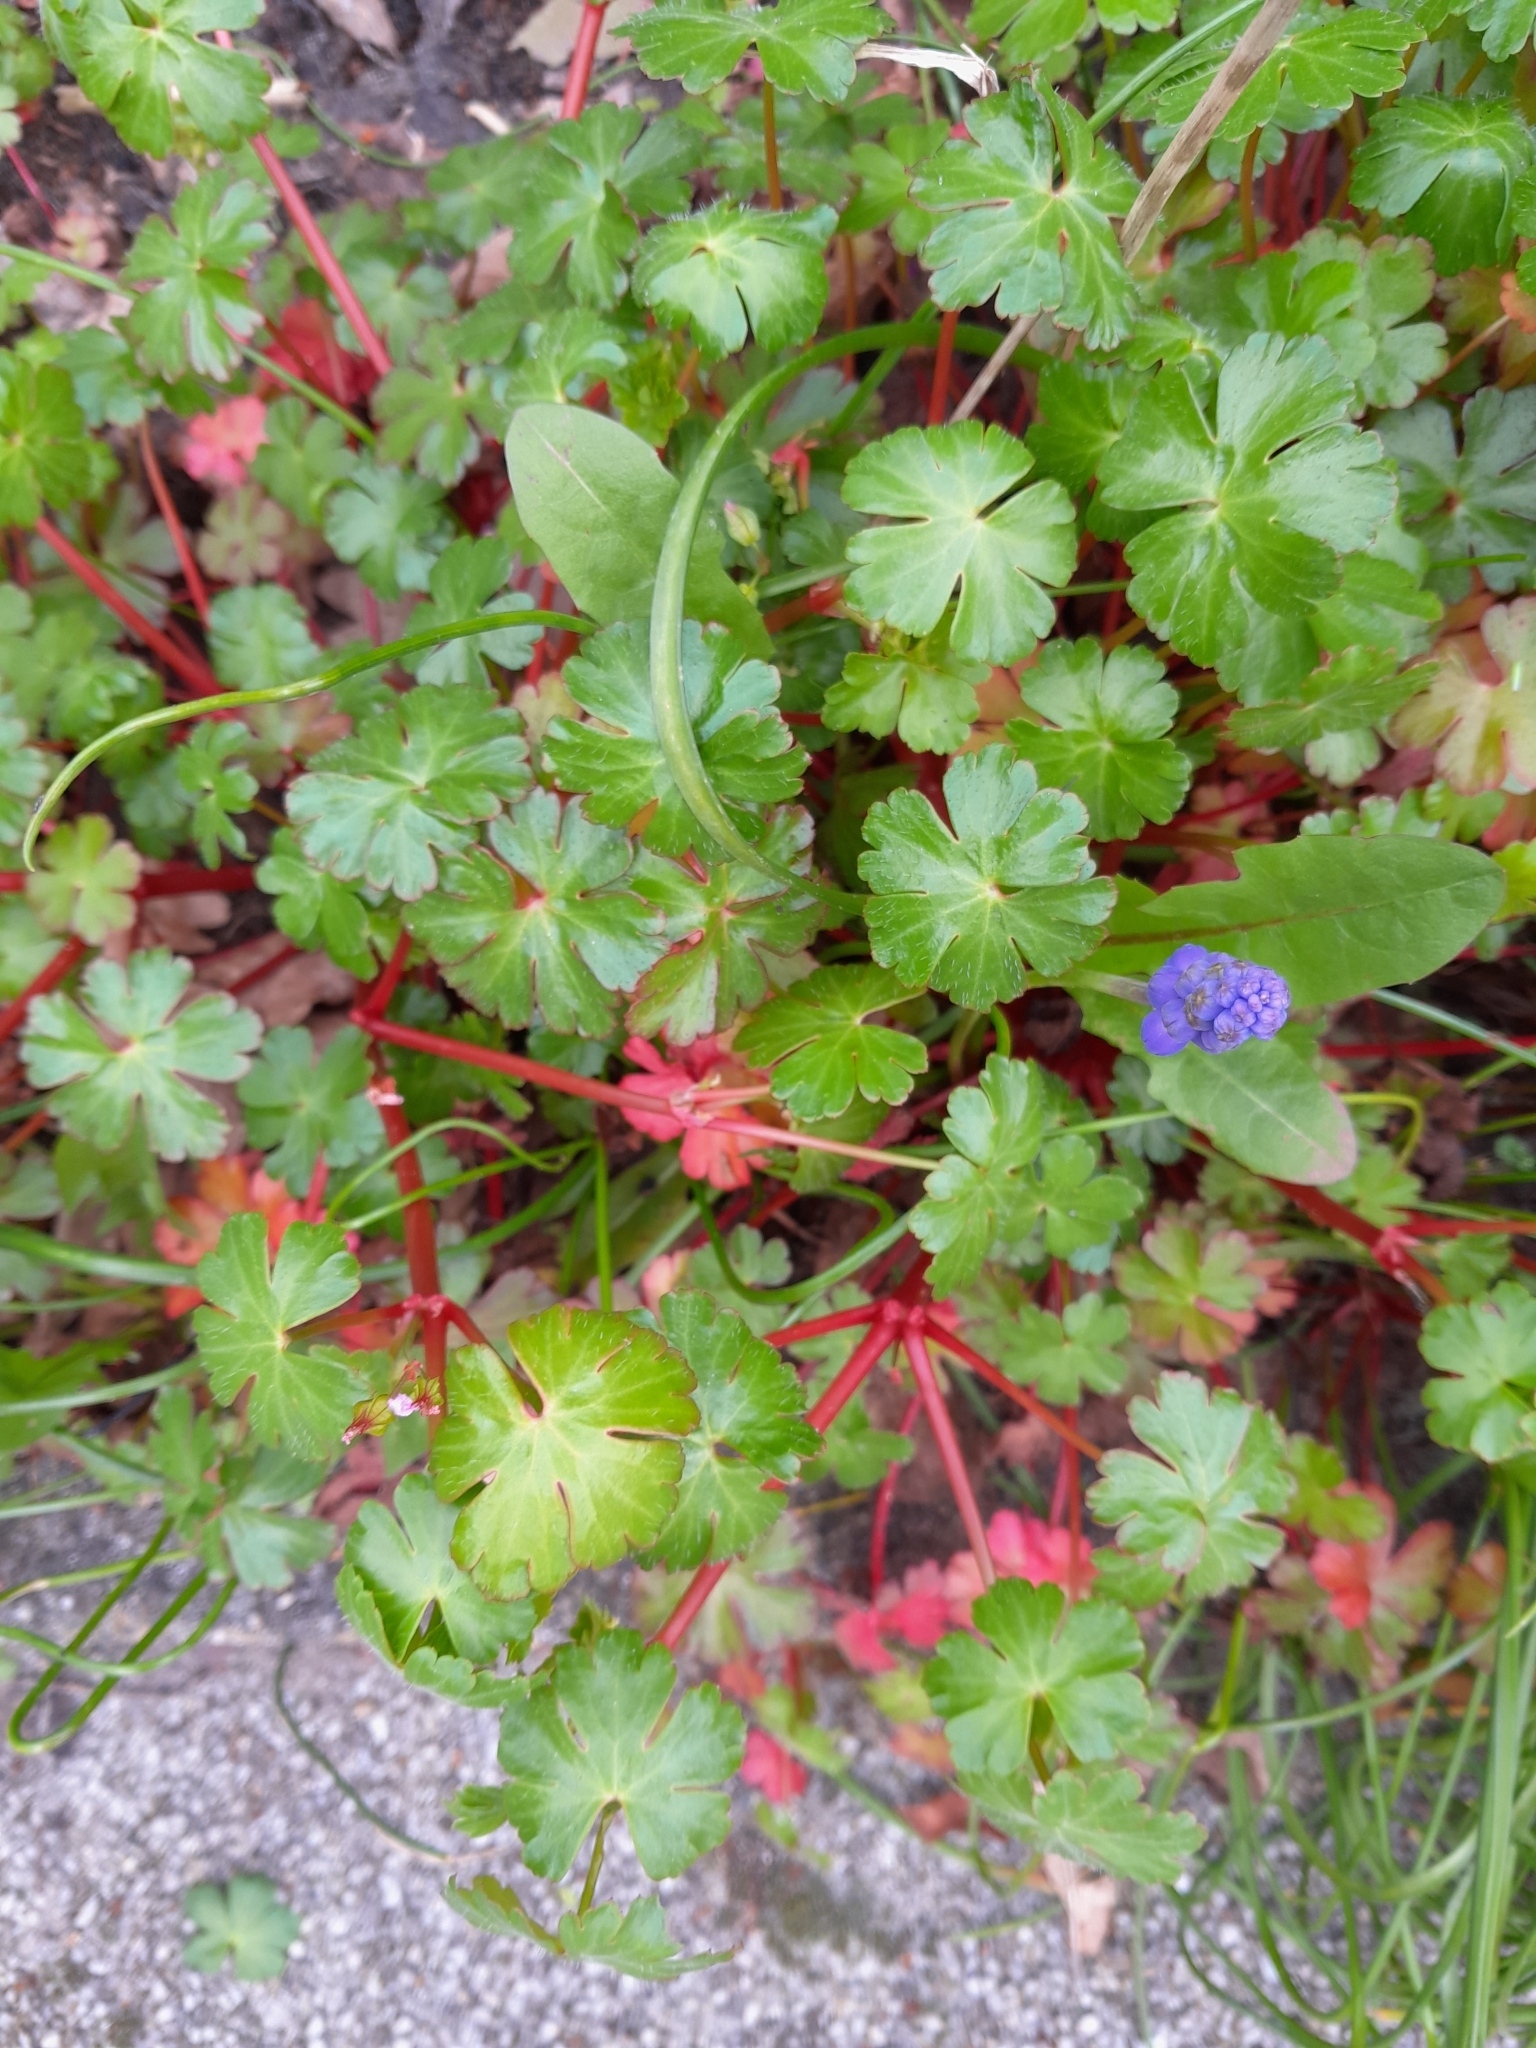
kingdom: Plantae
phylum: Tracheophyta
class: Magnoliopsida
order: Geraniales
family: Geraniaceae
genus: Geranium
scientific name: Geranium lucidum
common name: Shining crane's-bill
